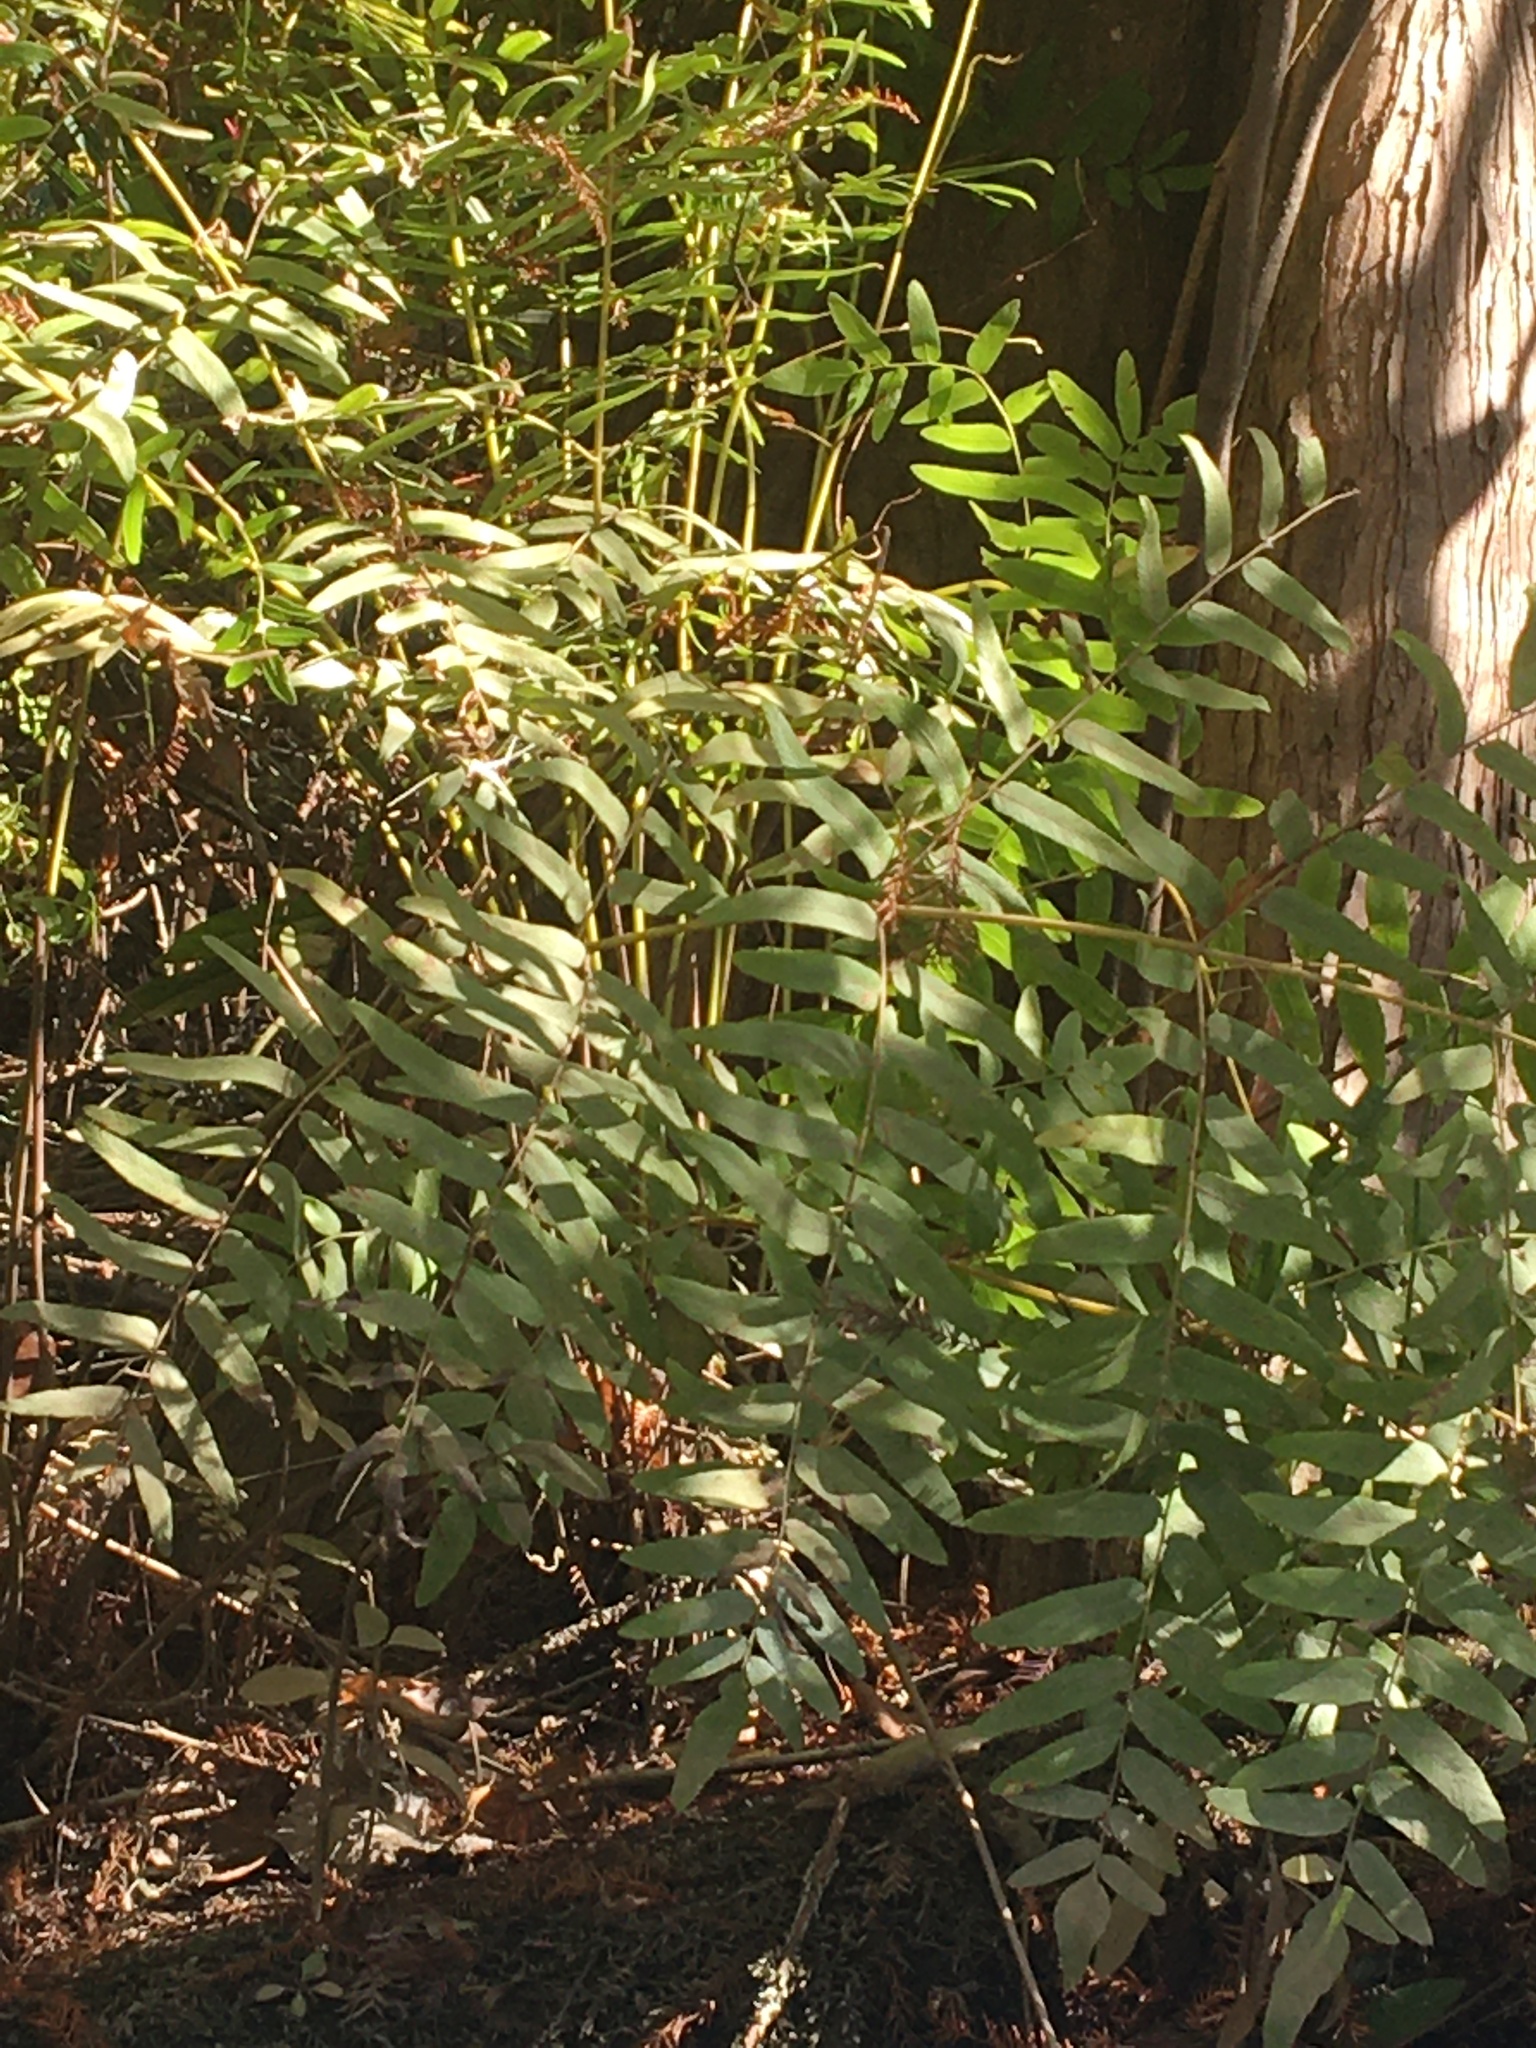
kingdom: Plantae
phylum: Tracheophyta
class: Polypodiopsida
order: Osmundales
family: Osmundaceae
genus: Osmunda
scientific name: Osmunda spectabilis
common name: American royal fern
